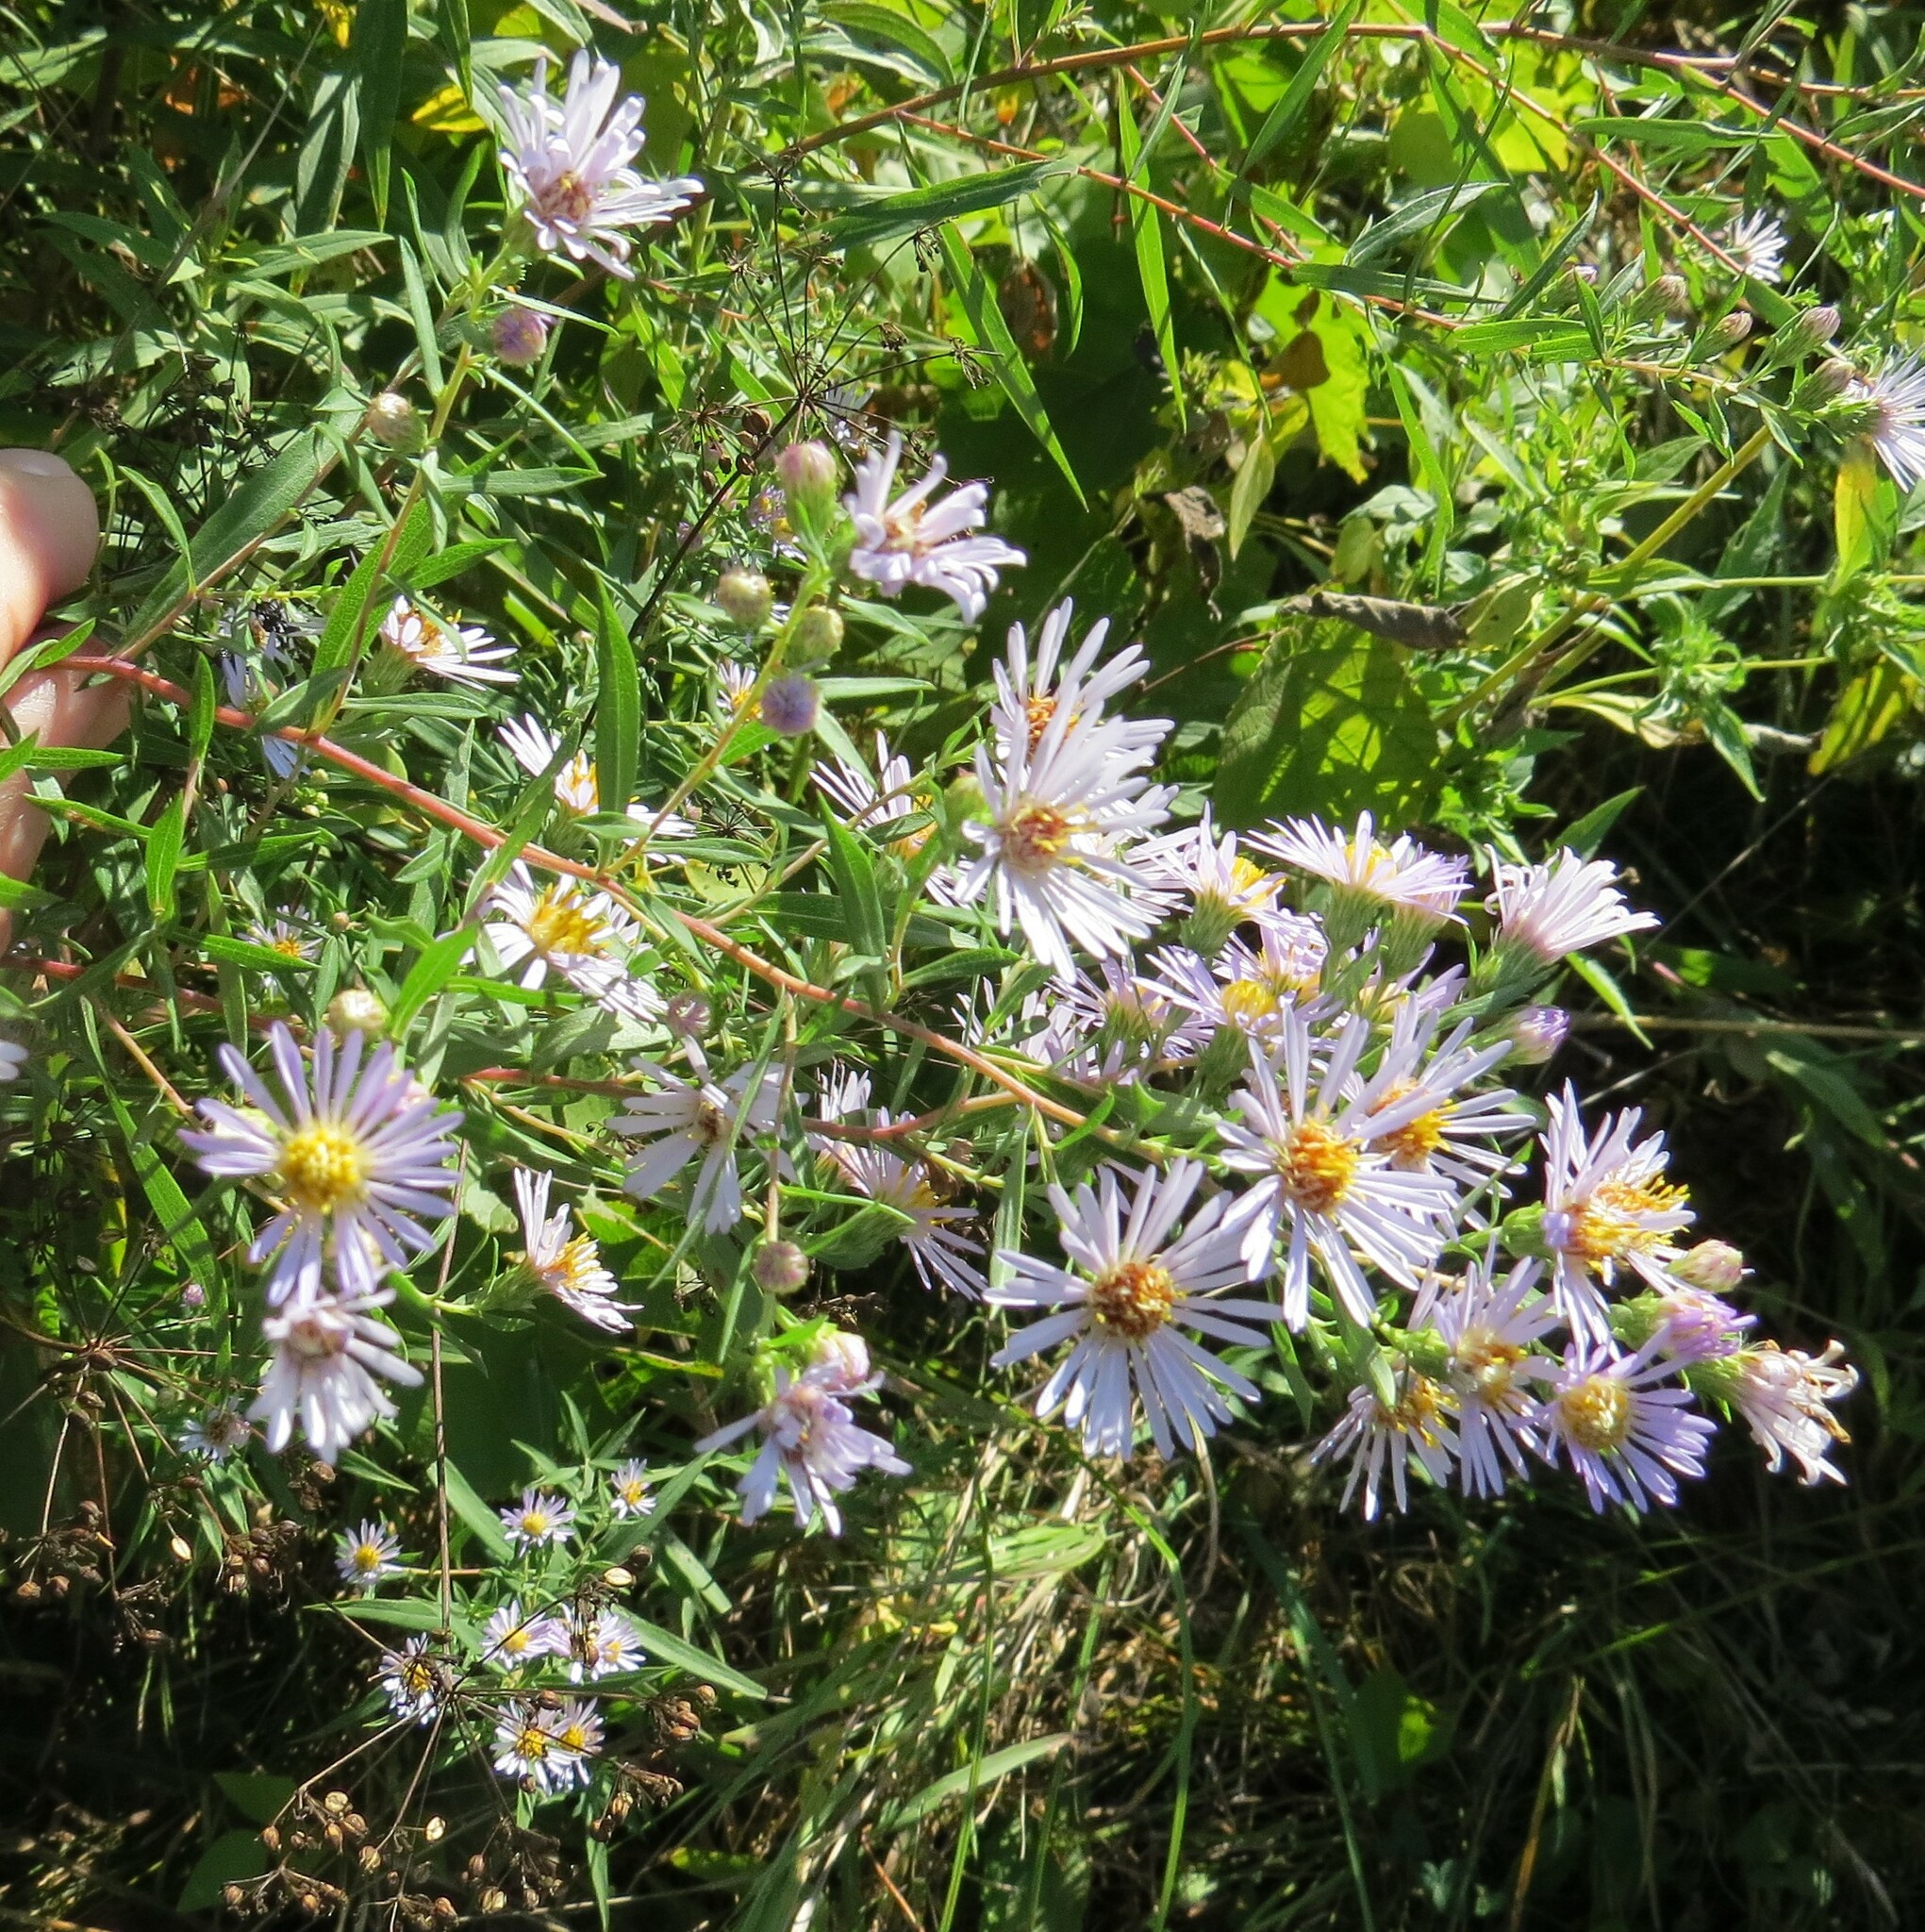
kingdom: Plantae
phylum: Tracheophyta
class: Magnoliopsida
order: Asterales
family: Asteraceae
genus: Symphyotrichum
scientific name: Symphyotrichum praealtum
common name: Willow aster
